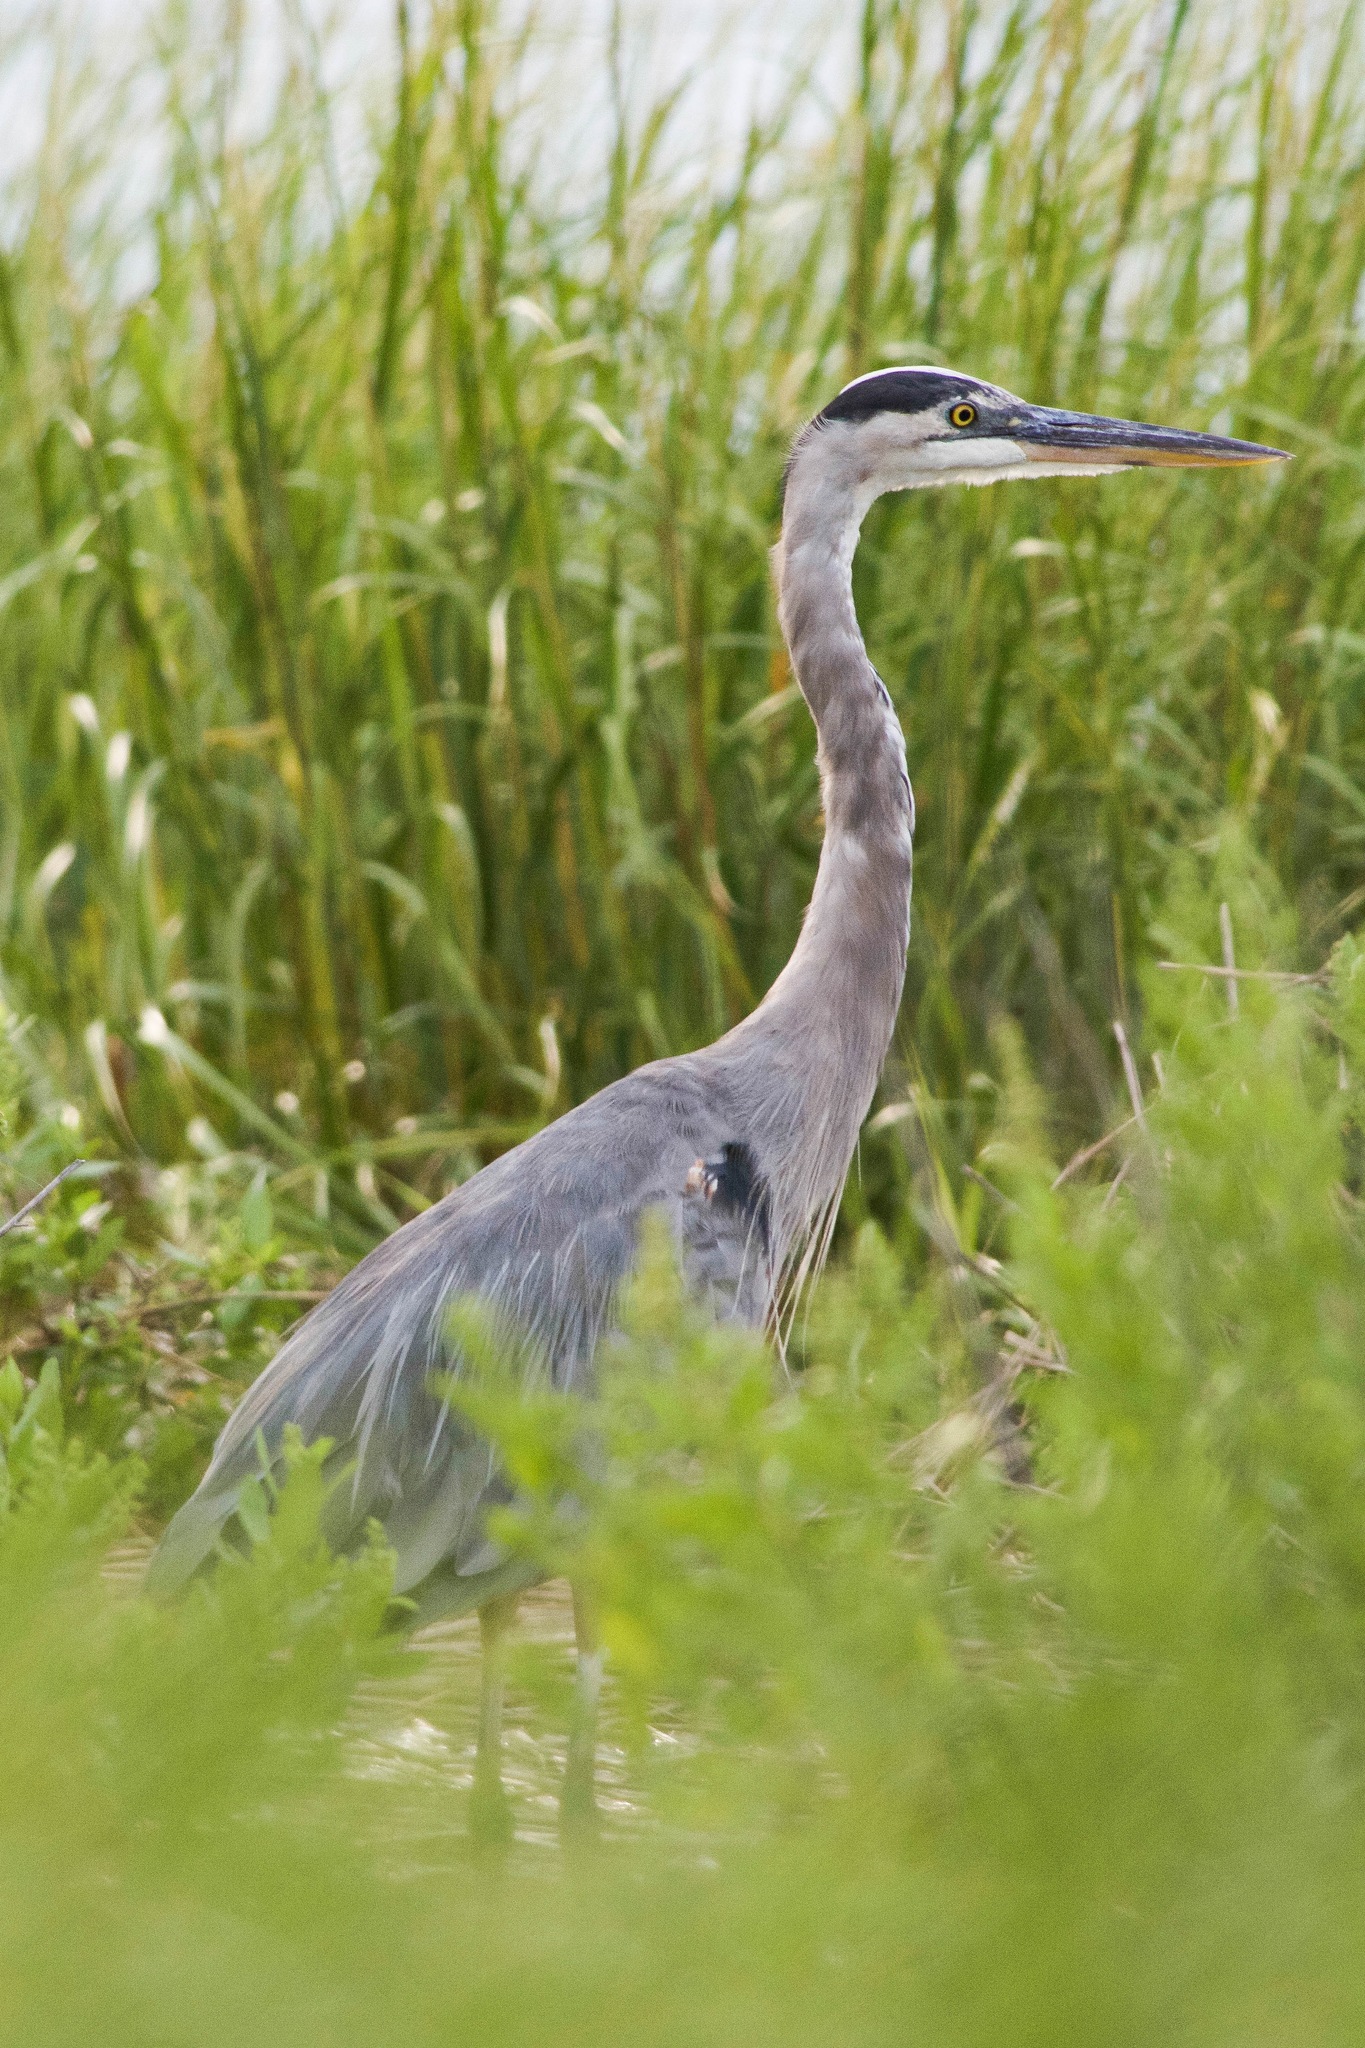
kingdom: Animalia
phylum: Chordata
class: Aves
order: Pelecaniformes
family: Ardeidae
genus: Ardea
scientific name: Ardea herodias
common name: Great blue heron
